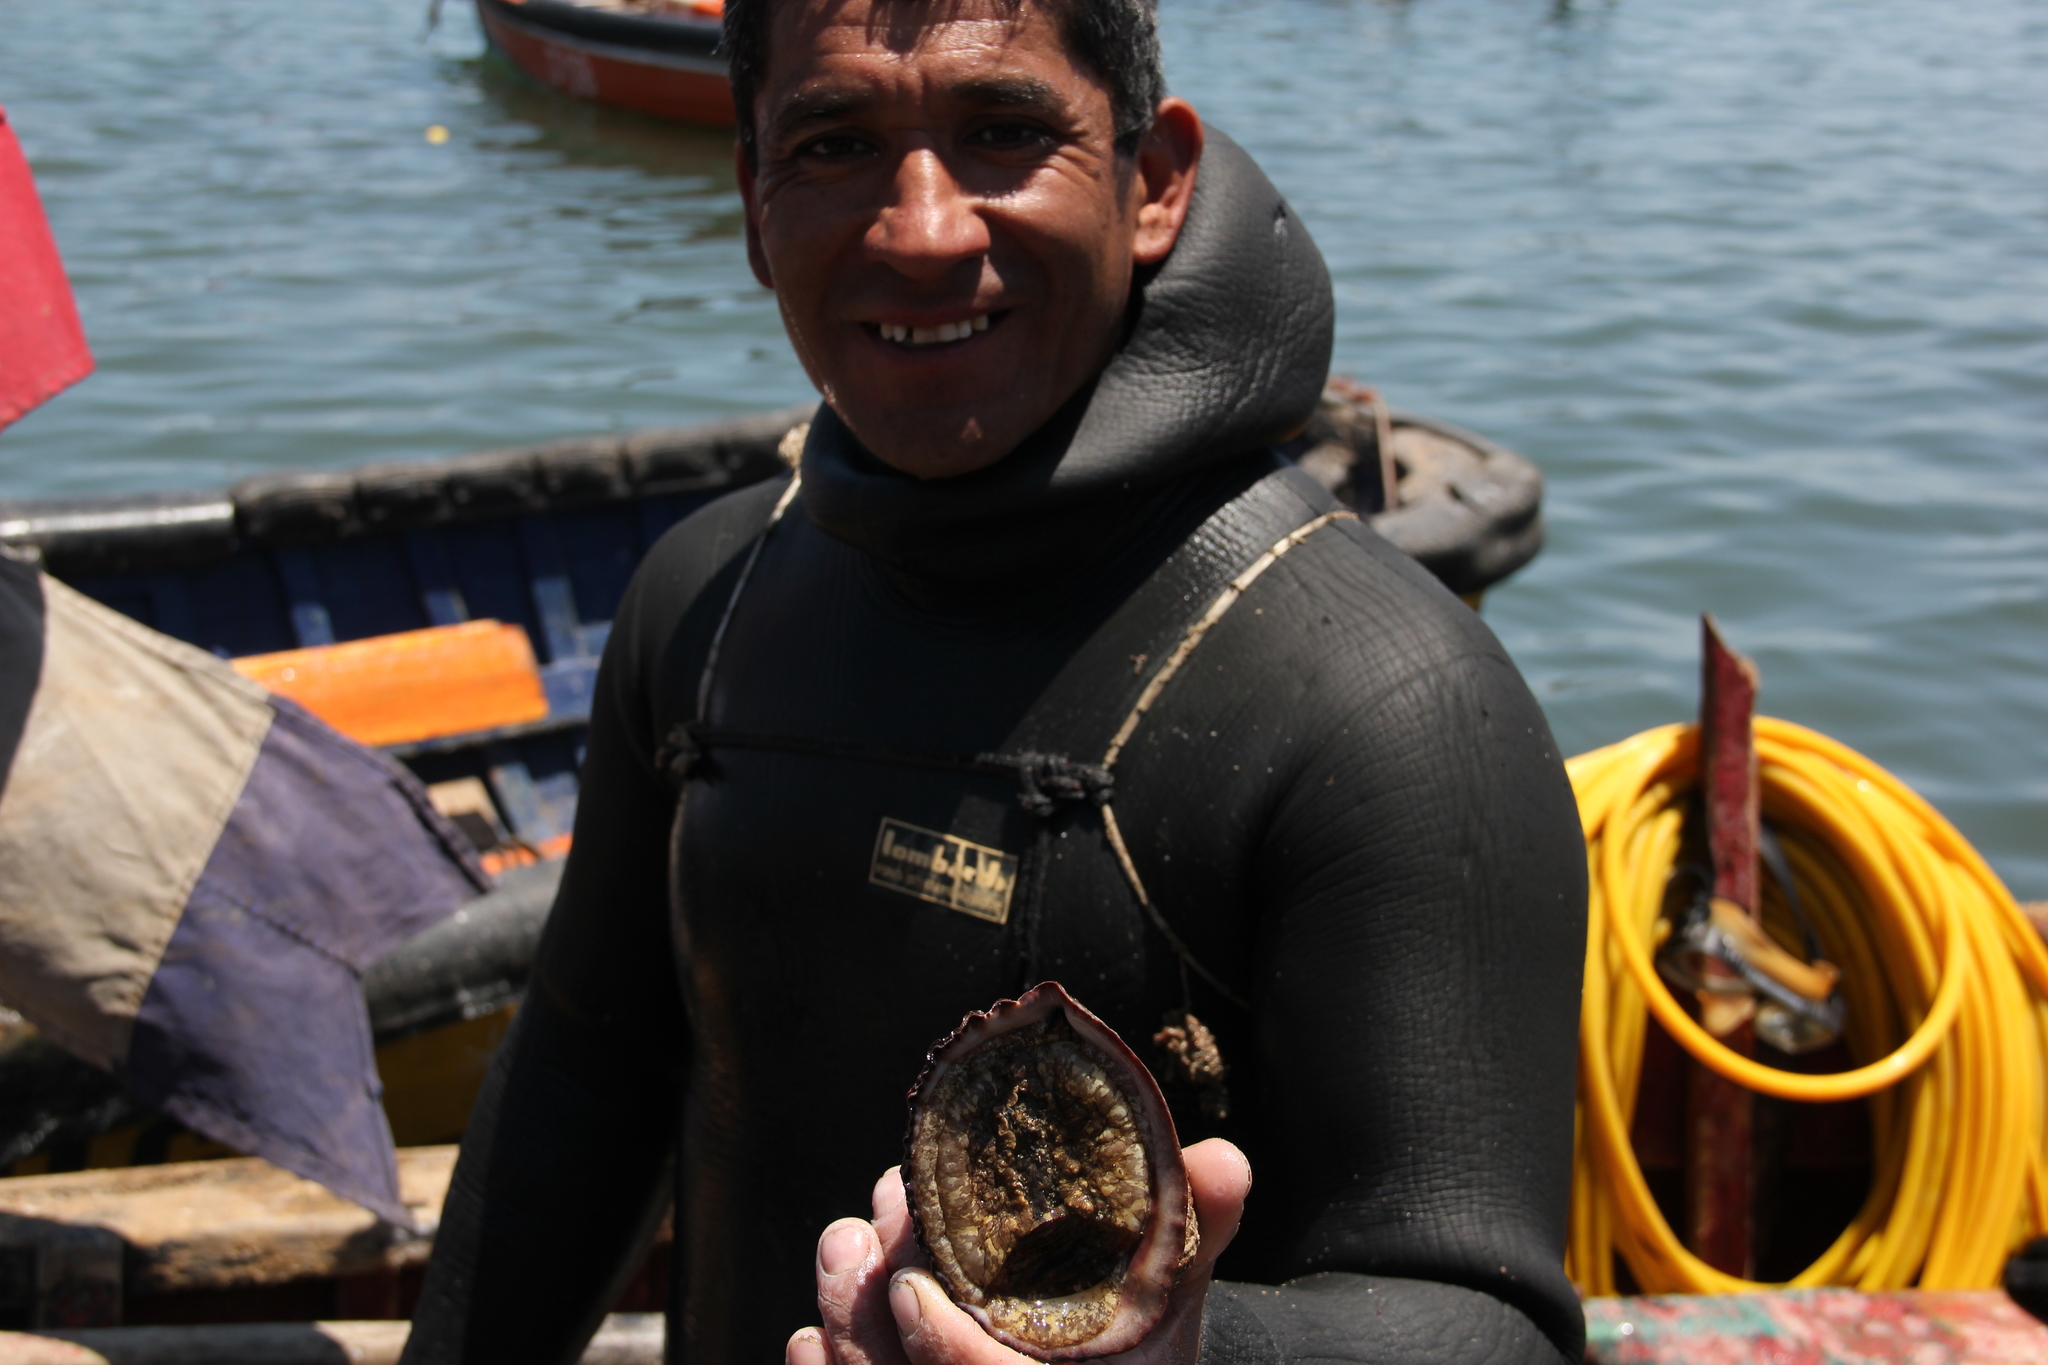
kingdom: Animalia
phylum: Mollusca
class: Gastropoda
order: Neogastropoda
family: Muricidae
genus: Concholepas
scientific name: Concholepas concholepas
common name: Chilean abalone
